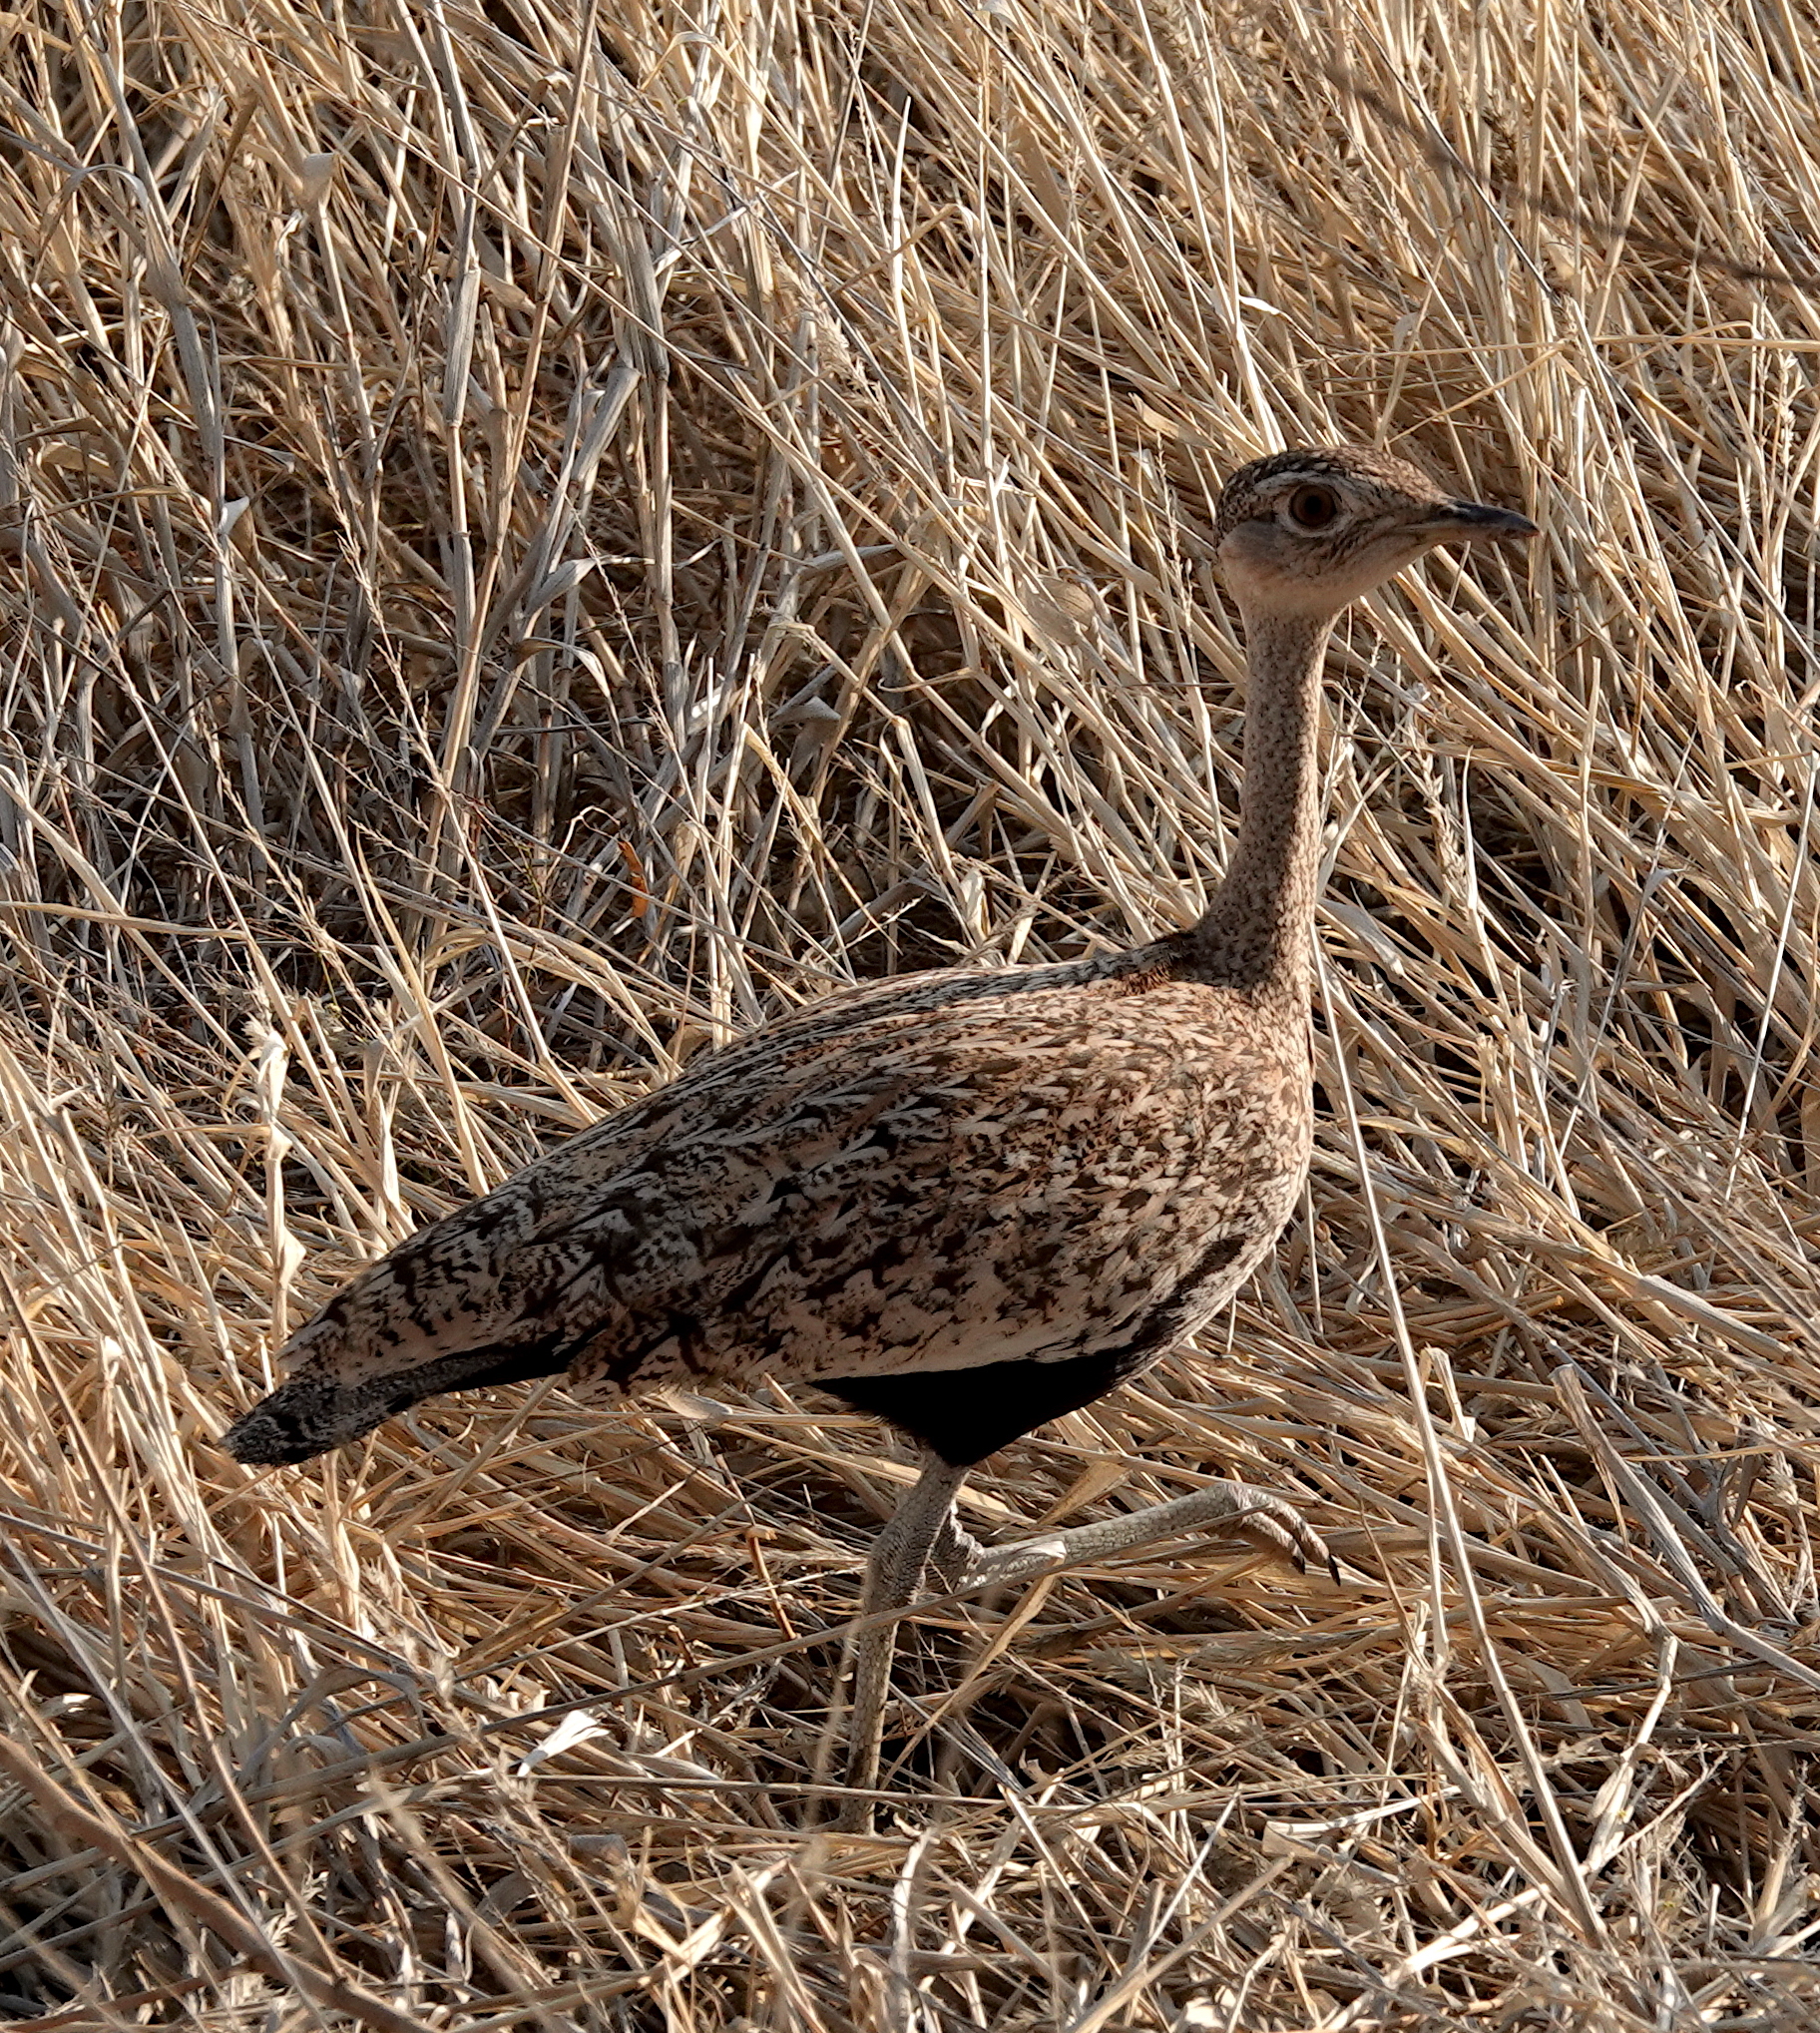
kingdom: Animalia
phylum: Chordata
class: Aves
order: Otidiformes
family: Otididae
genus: Lophotis
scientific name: Lophotis ruficrista
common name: Red-crested korhaan
